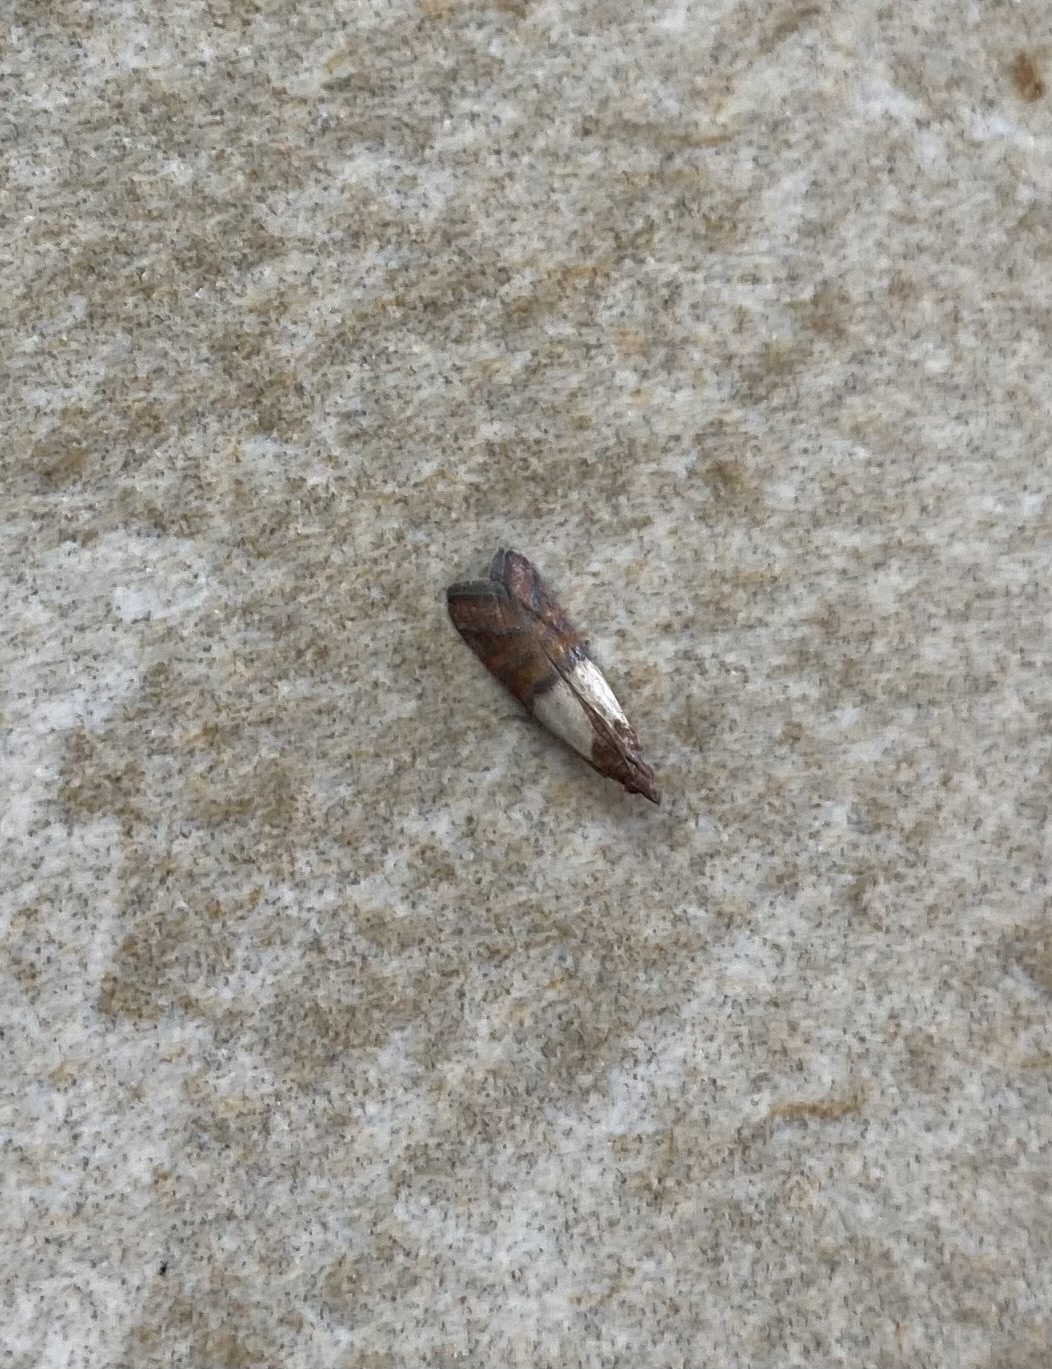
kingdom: Animalia
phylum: Arthropoda
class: Insecta
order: Lepidoptera
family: Pyralidae
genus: Plodia
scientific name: Plodia interpunctella
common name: Indian meal moth
